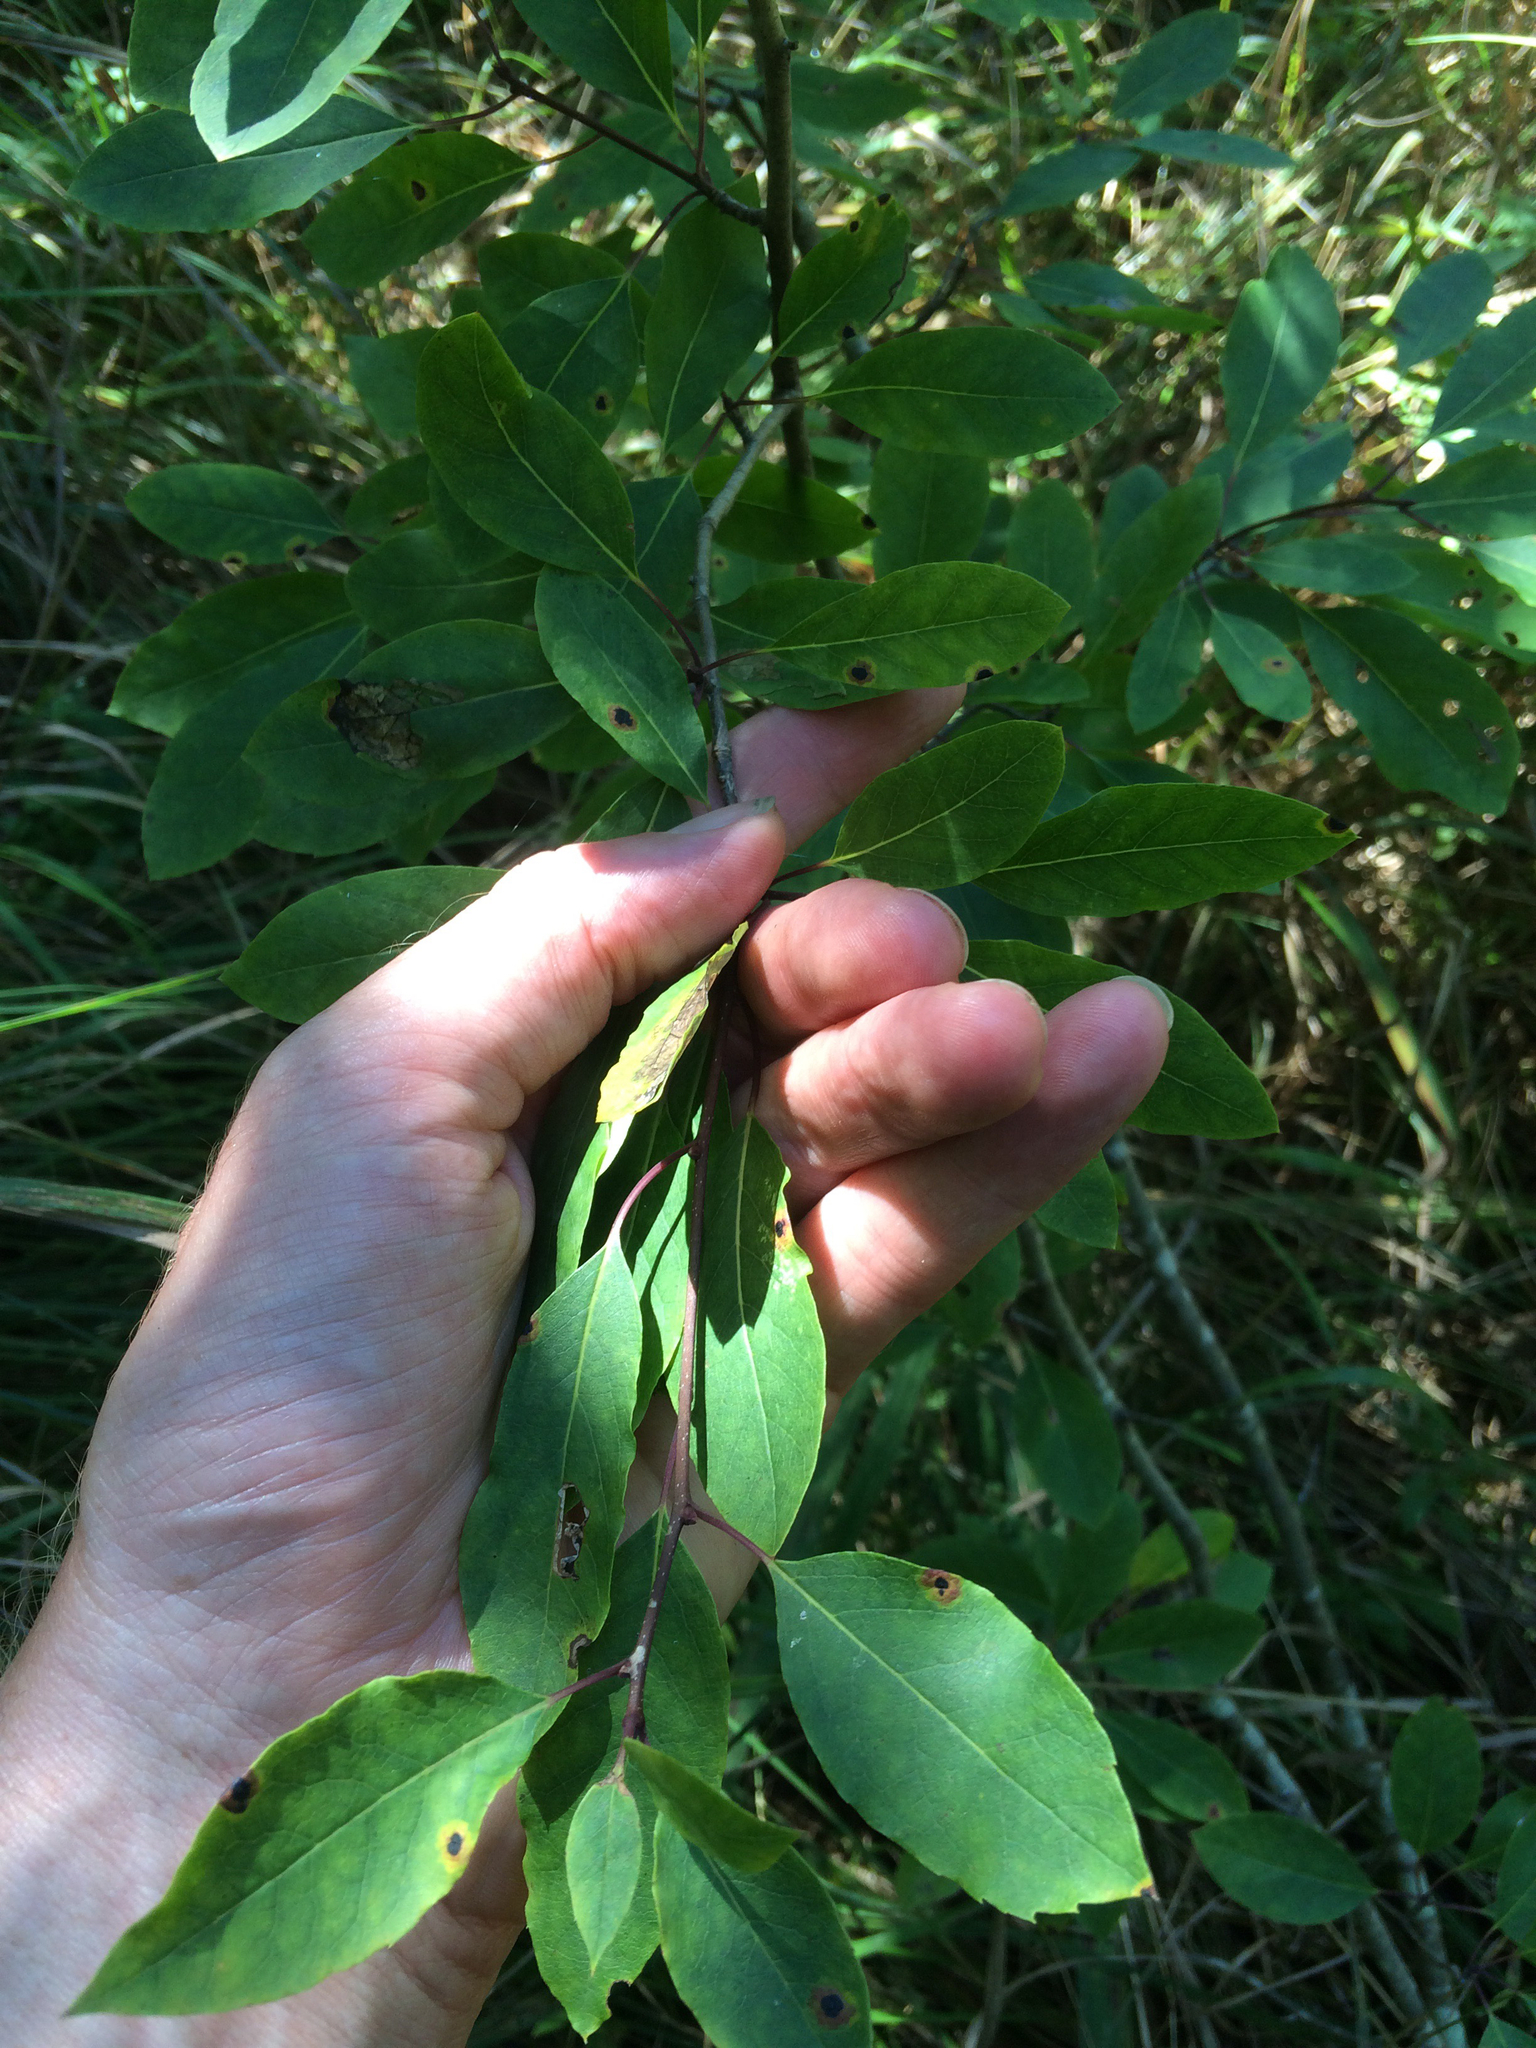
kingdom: Plantae
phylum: Tracheophyta
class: Magnoliopsida
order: Aquifoliales
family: Aquifoliaceae
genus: Ilex
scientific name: Ilex mucronata
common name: Catberry
